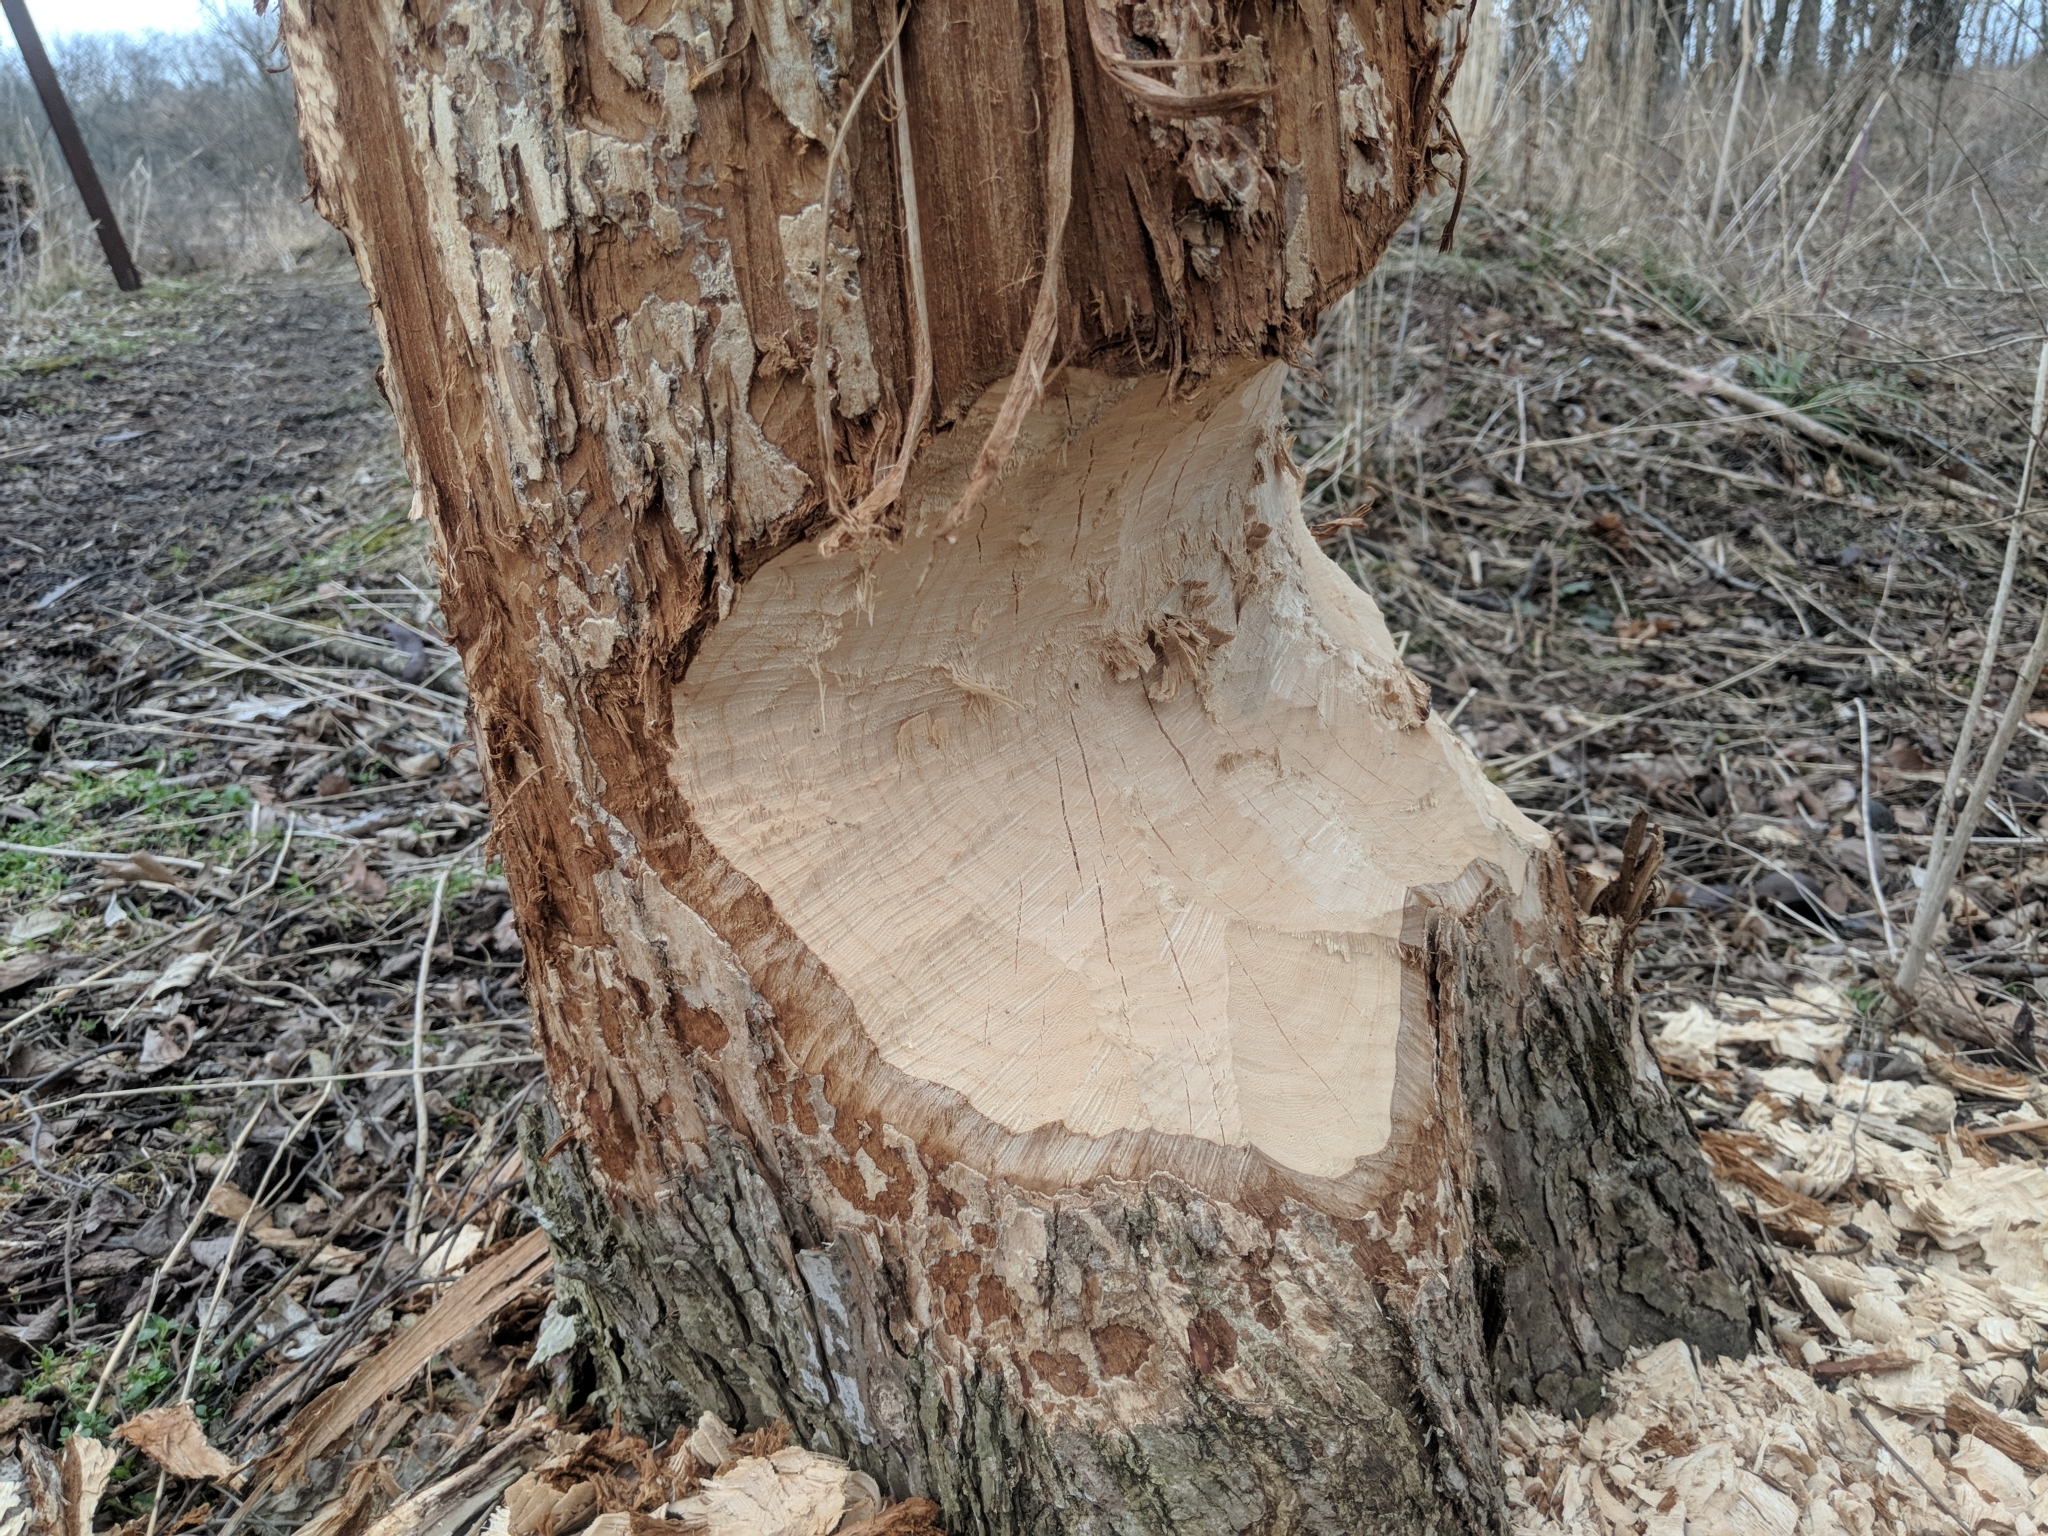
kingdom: Animalia
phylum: Chordata
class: Mammalia
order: Rodentia
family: Castoridae
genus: Castor
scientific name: Castor canadensis
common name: American beaver
